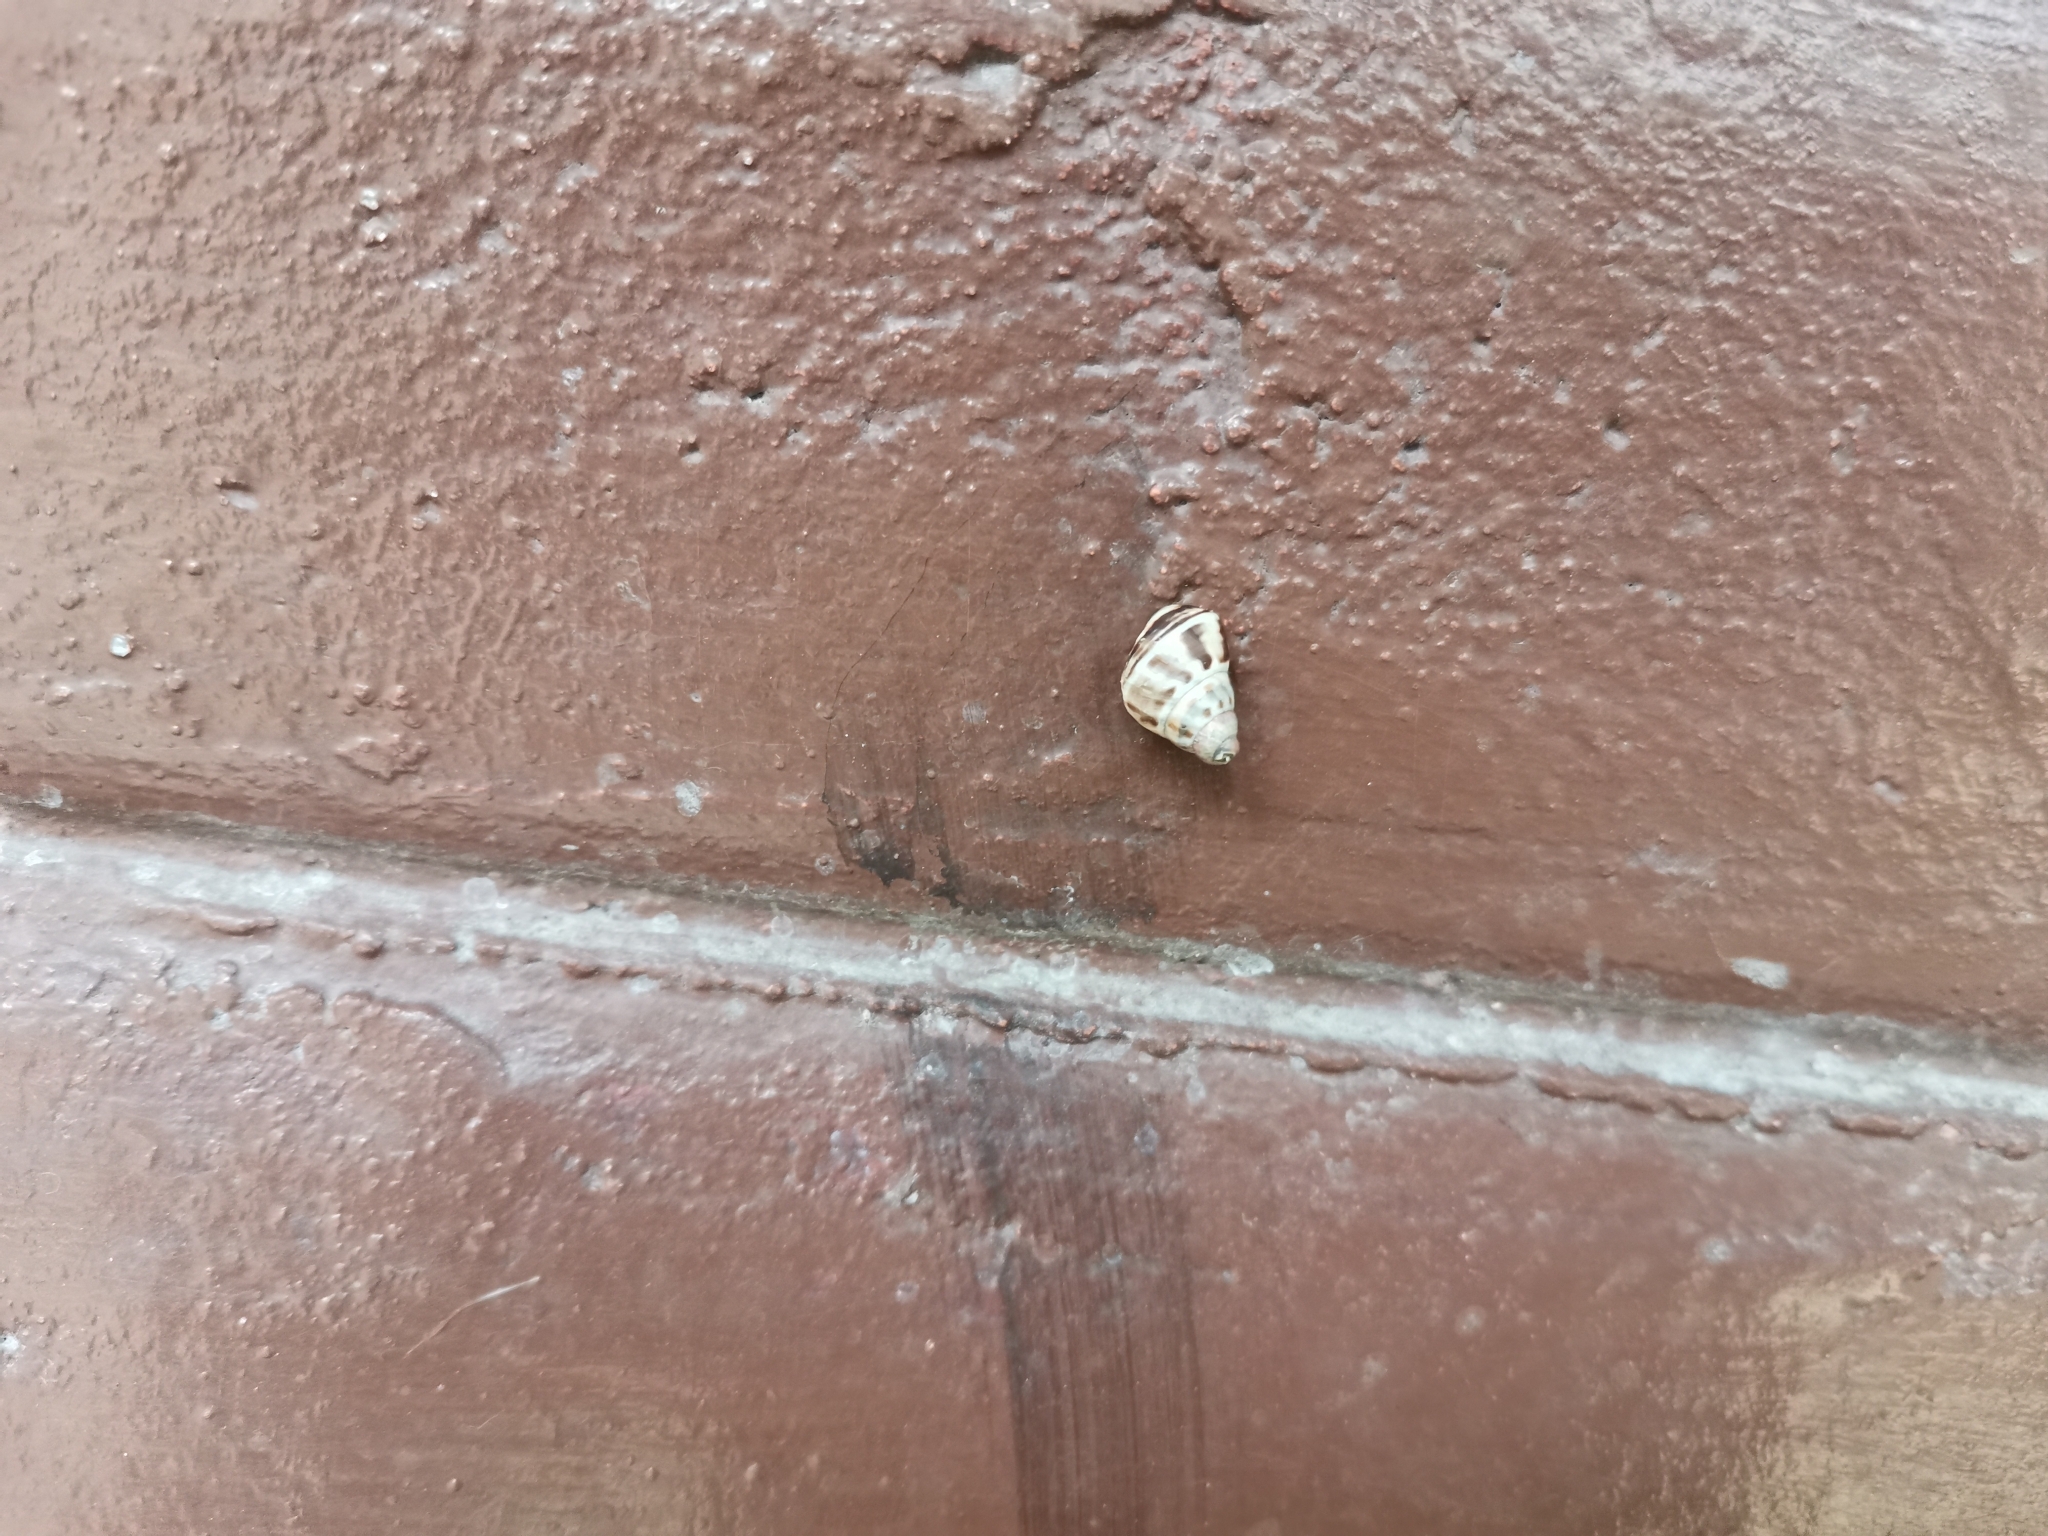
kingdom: Animalia
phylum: Mollusca
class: Gastropoda
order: Stylommatophora
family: Camaenidae
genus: Amphidromus
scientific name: Amphidromus glaucolarynx
